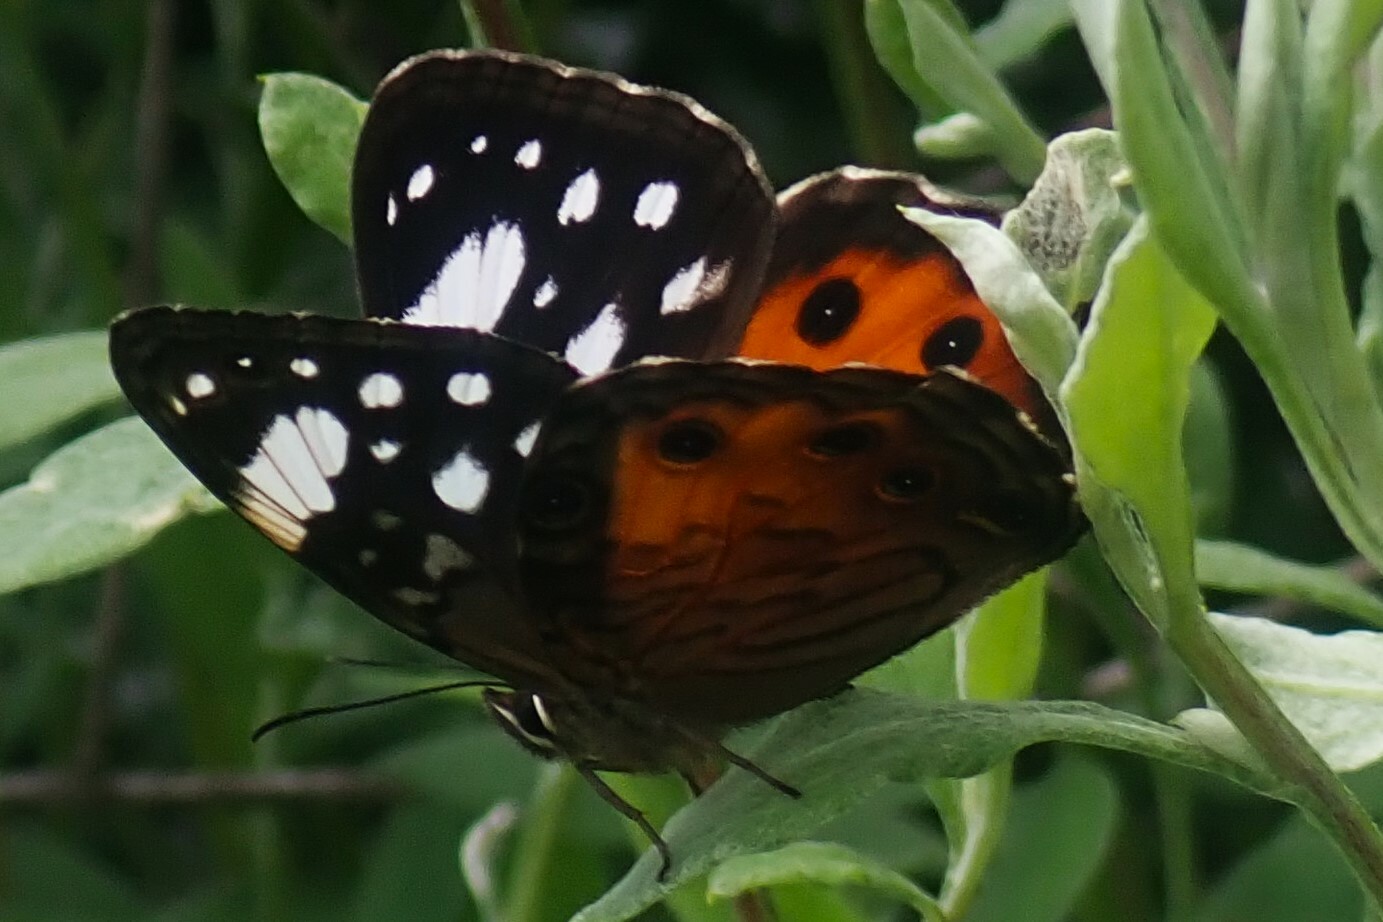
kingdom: Animalia
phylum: Arthropoda
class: Insecta
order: Lepidoptera
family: Nymphalidae
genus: Paralethe
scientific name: Paralethe dendrophilus
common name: Bush beauty
